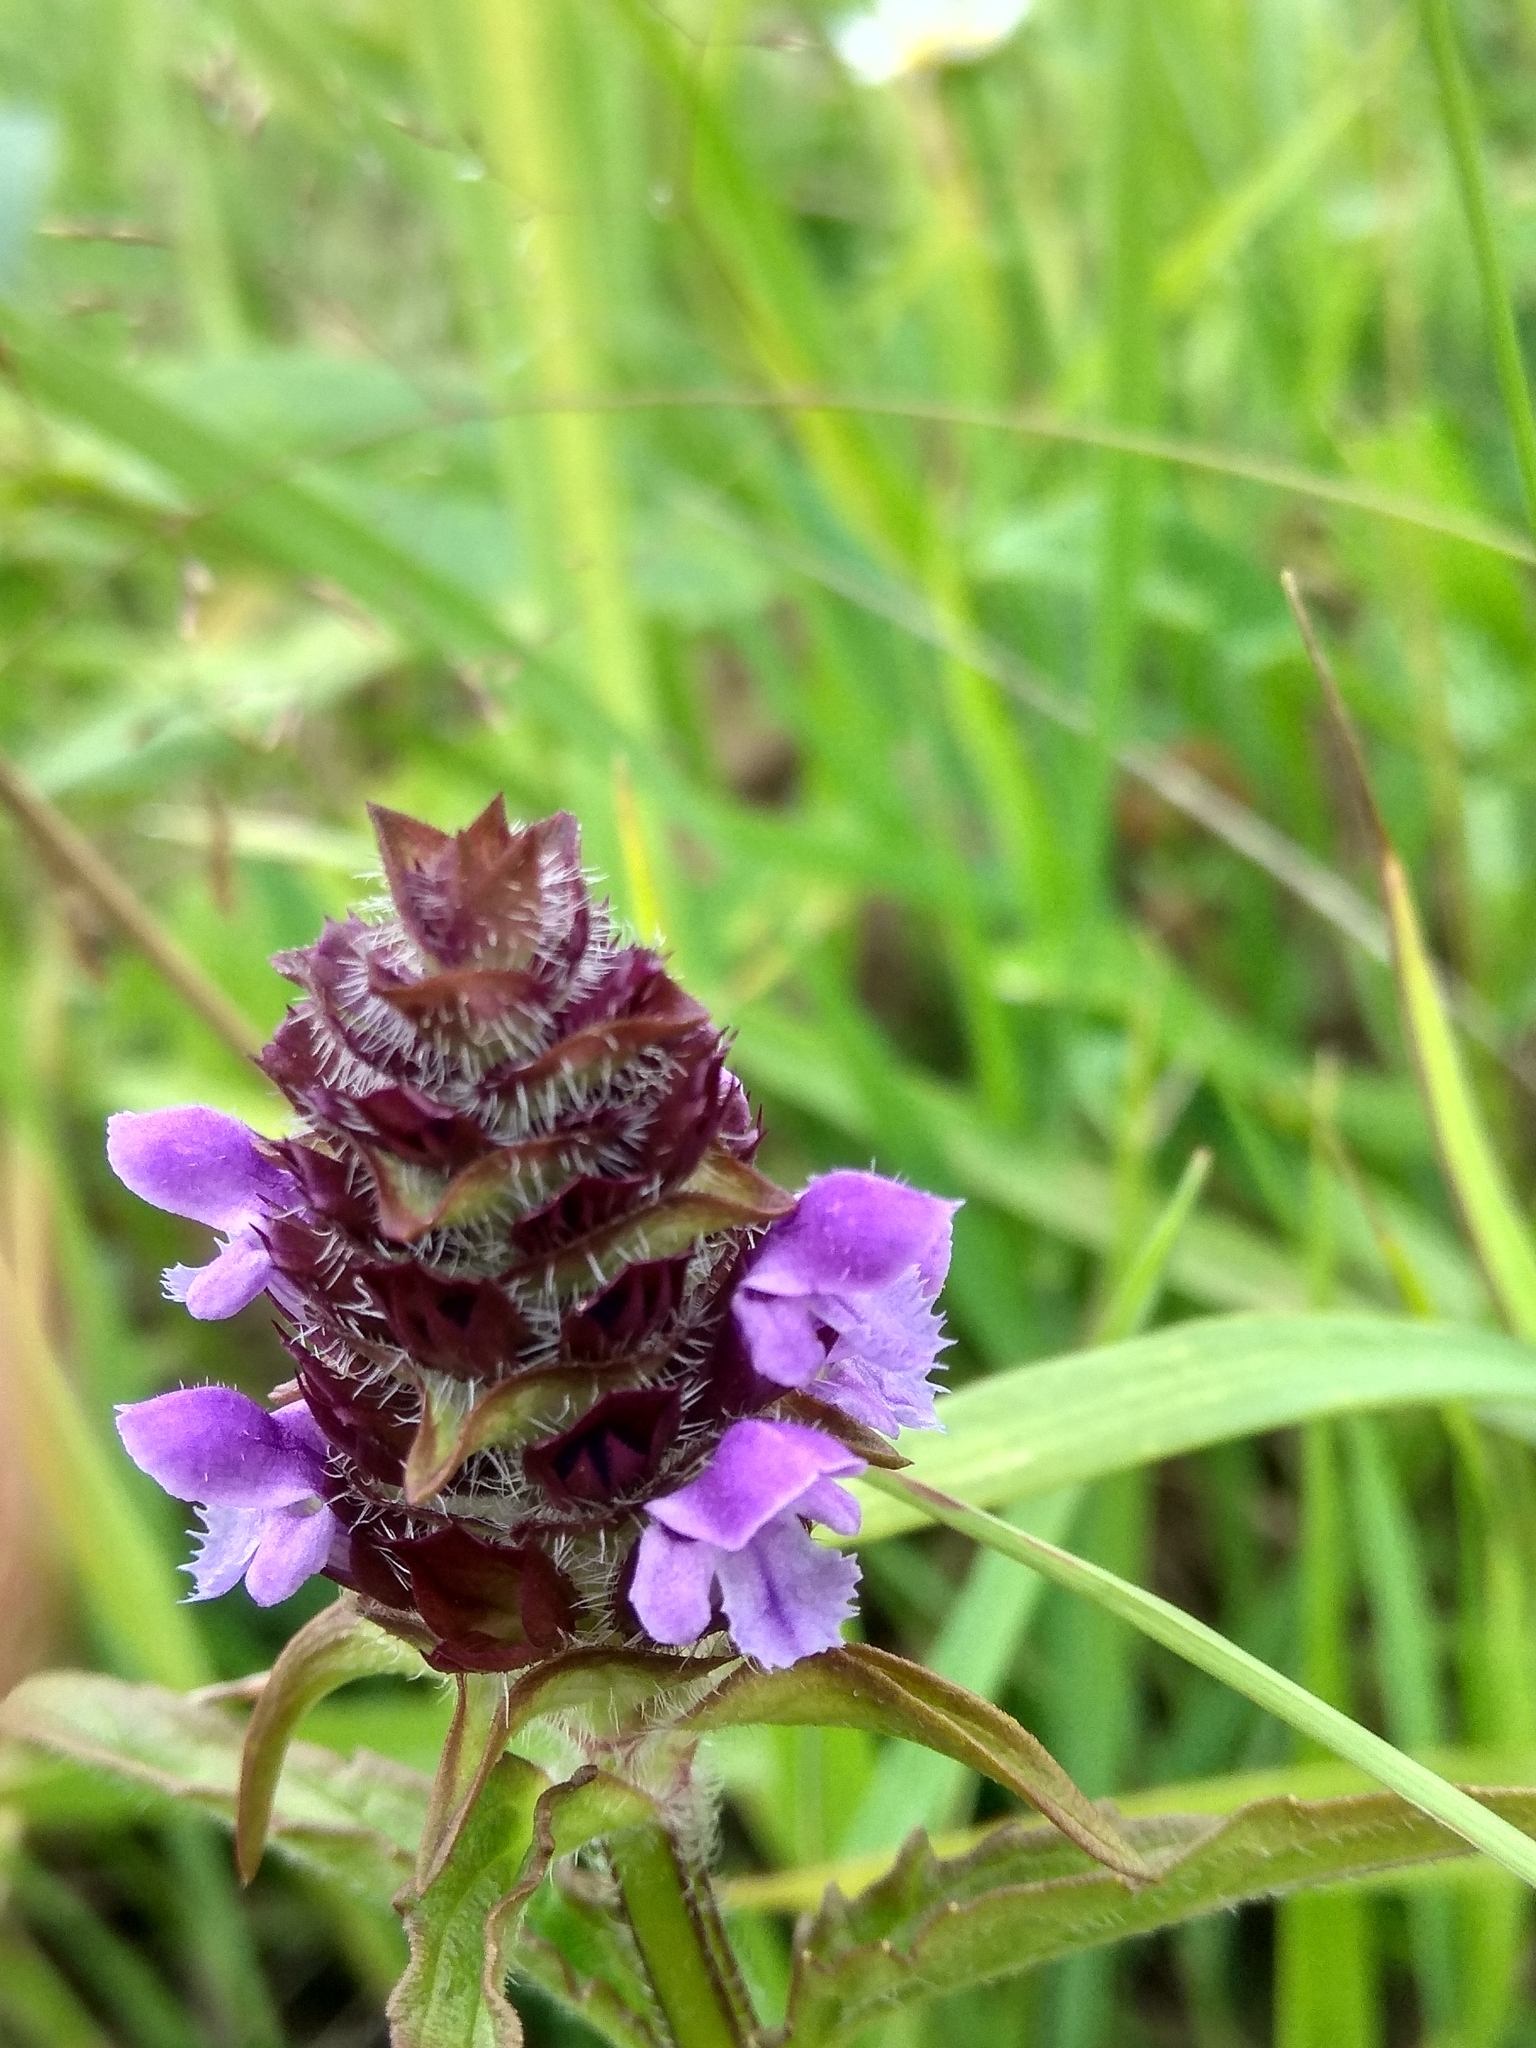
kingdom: Plantae
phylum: Tracheophyta
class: Magnoliopsida
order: Lamiales
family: Lamiaceae
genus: Prunella
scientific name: Prunella vulgaris
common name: Heal-all
